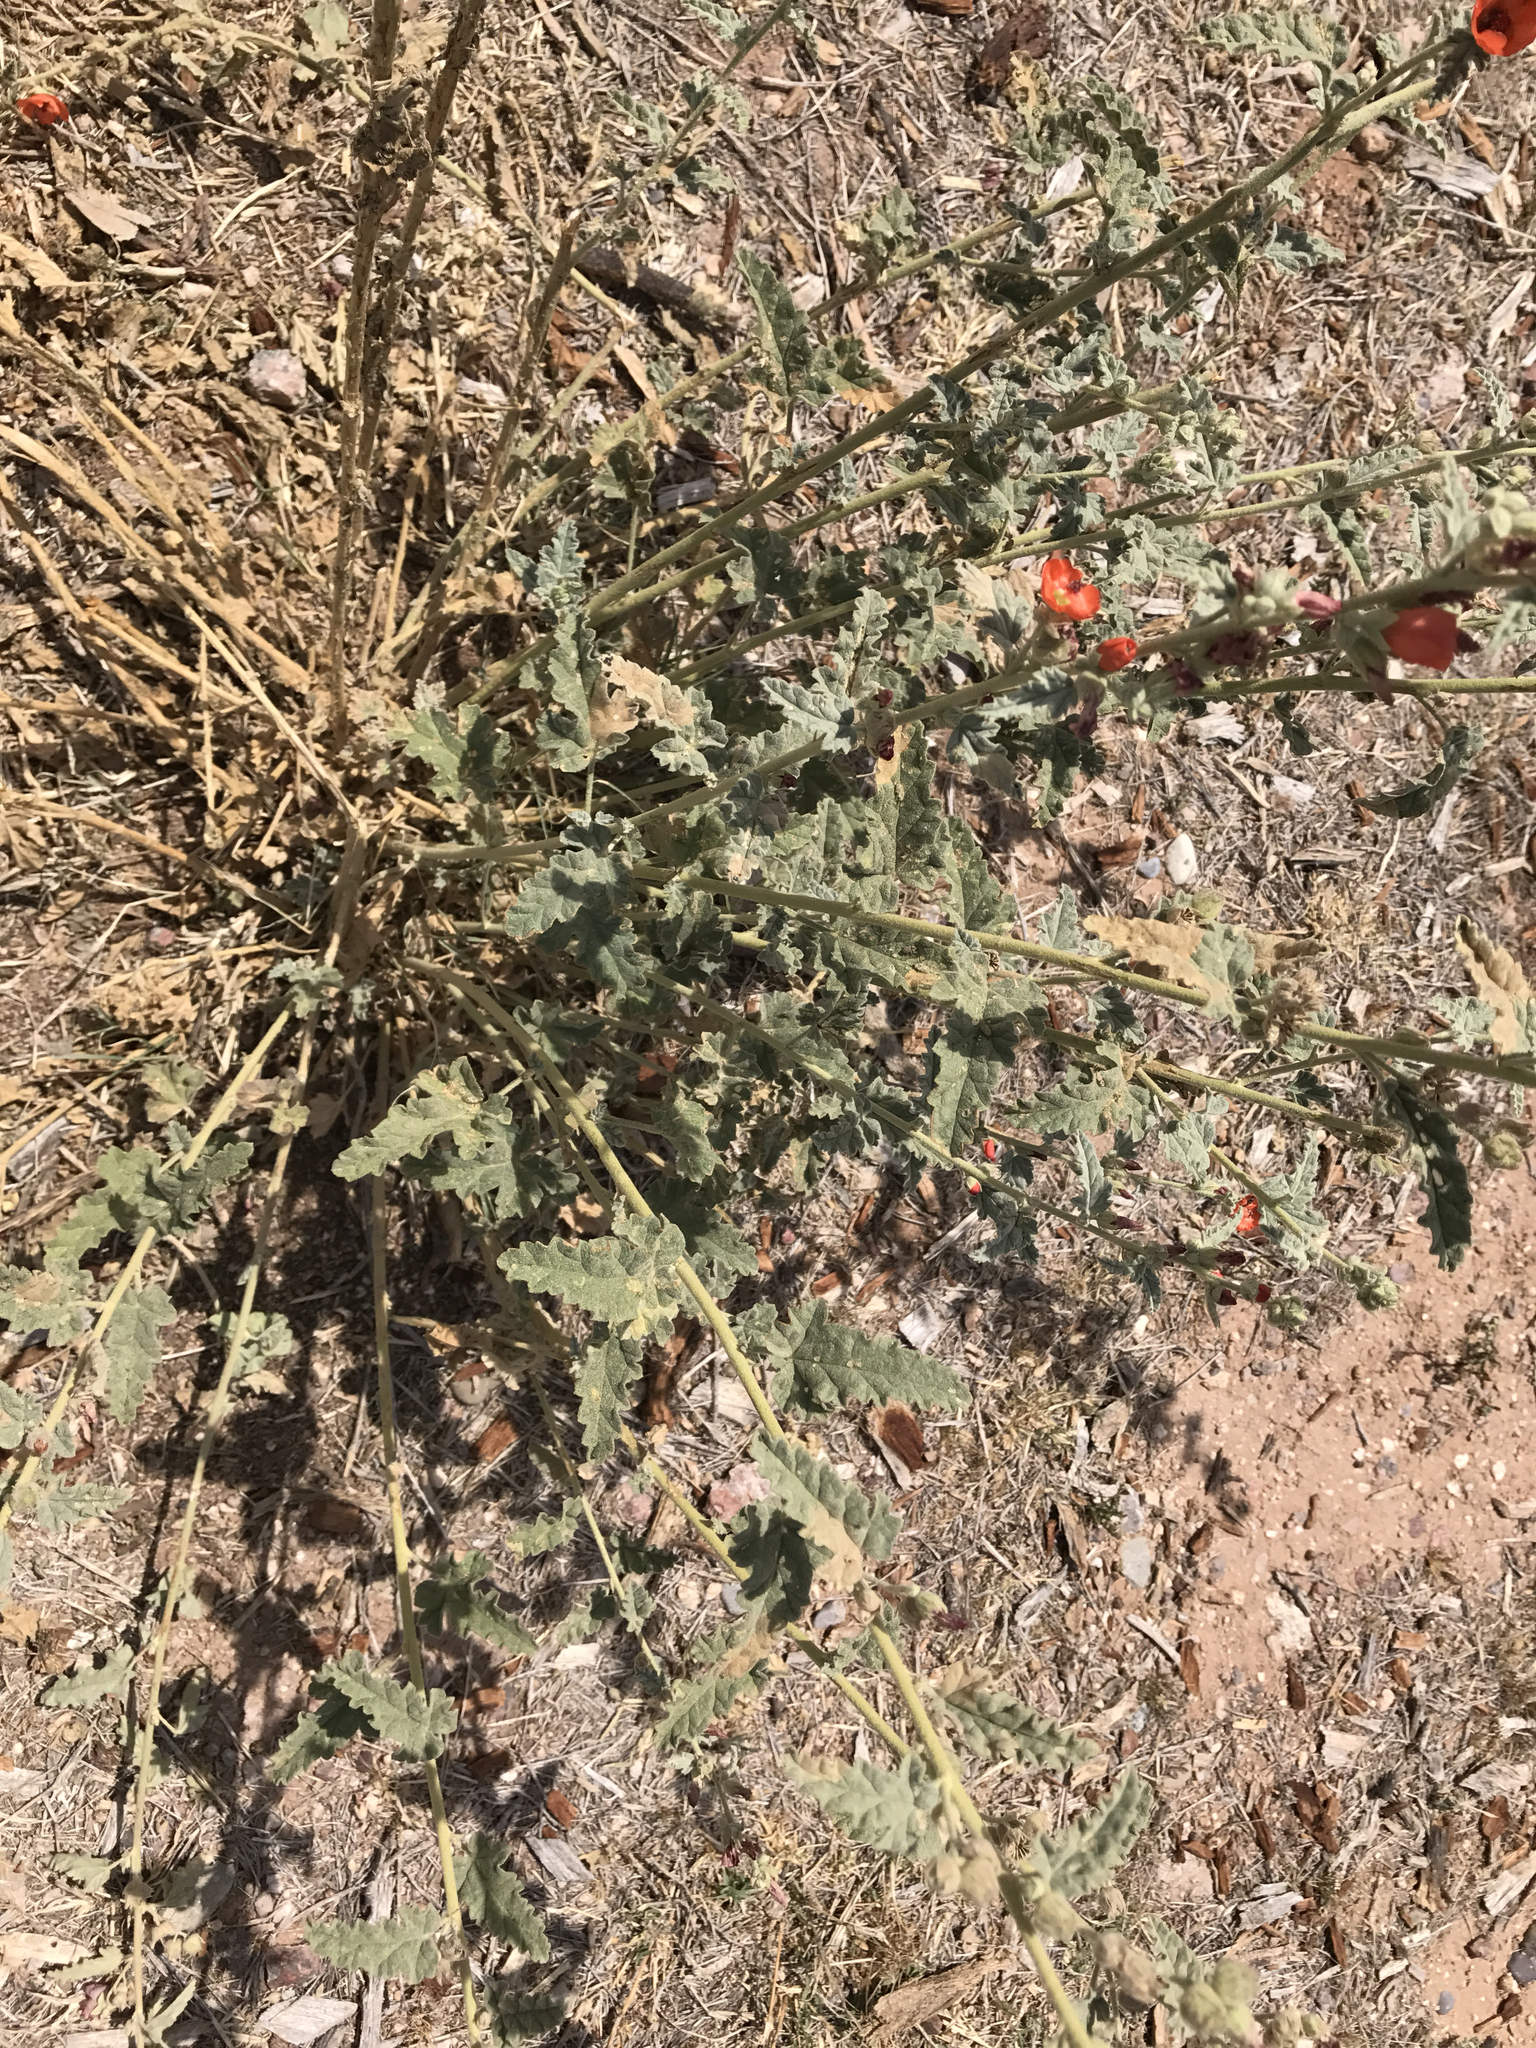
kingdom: Plantae
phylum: Tracheophyta
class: Magnoliopsida
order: Malvales
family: Malvaceae
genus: Sphaeralcea
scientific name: Sphaeralcea laxa
